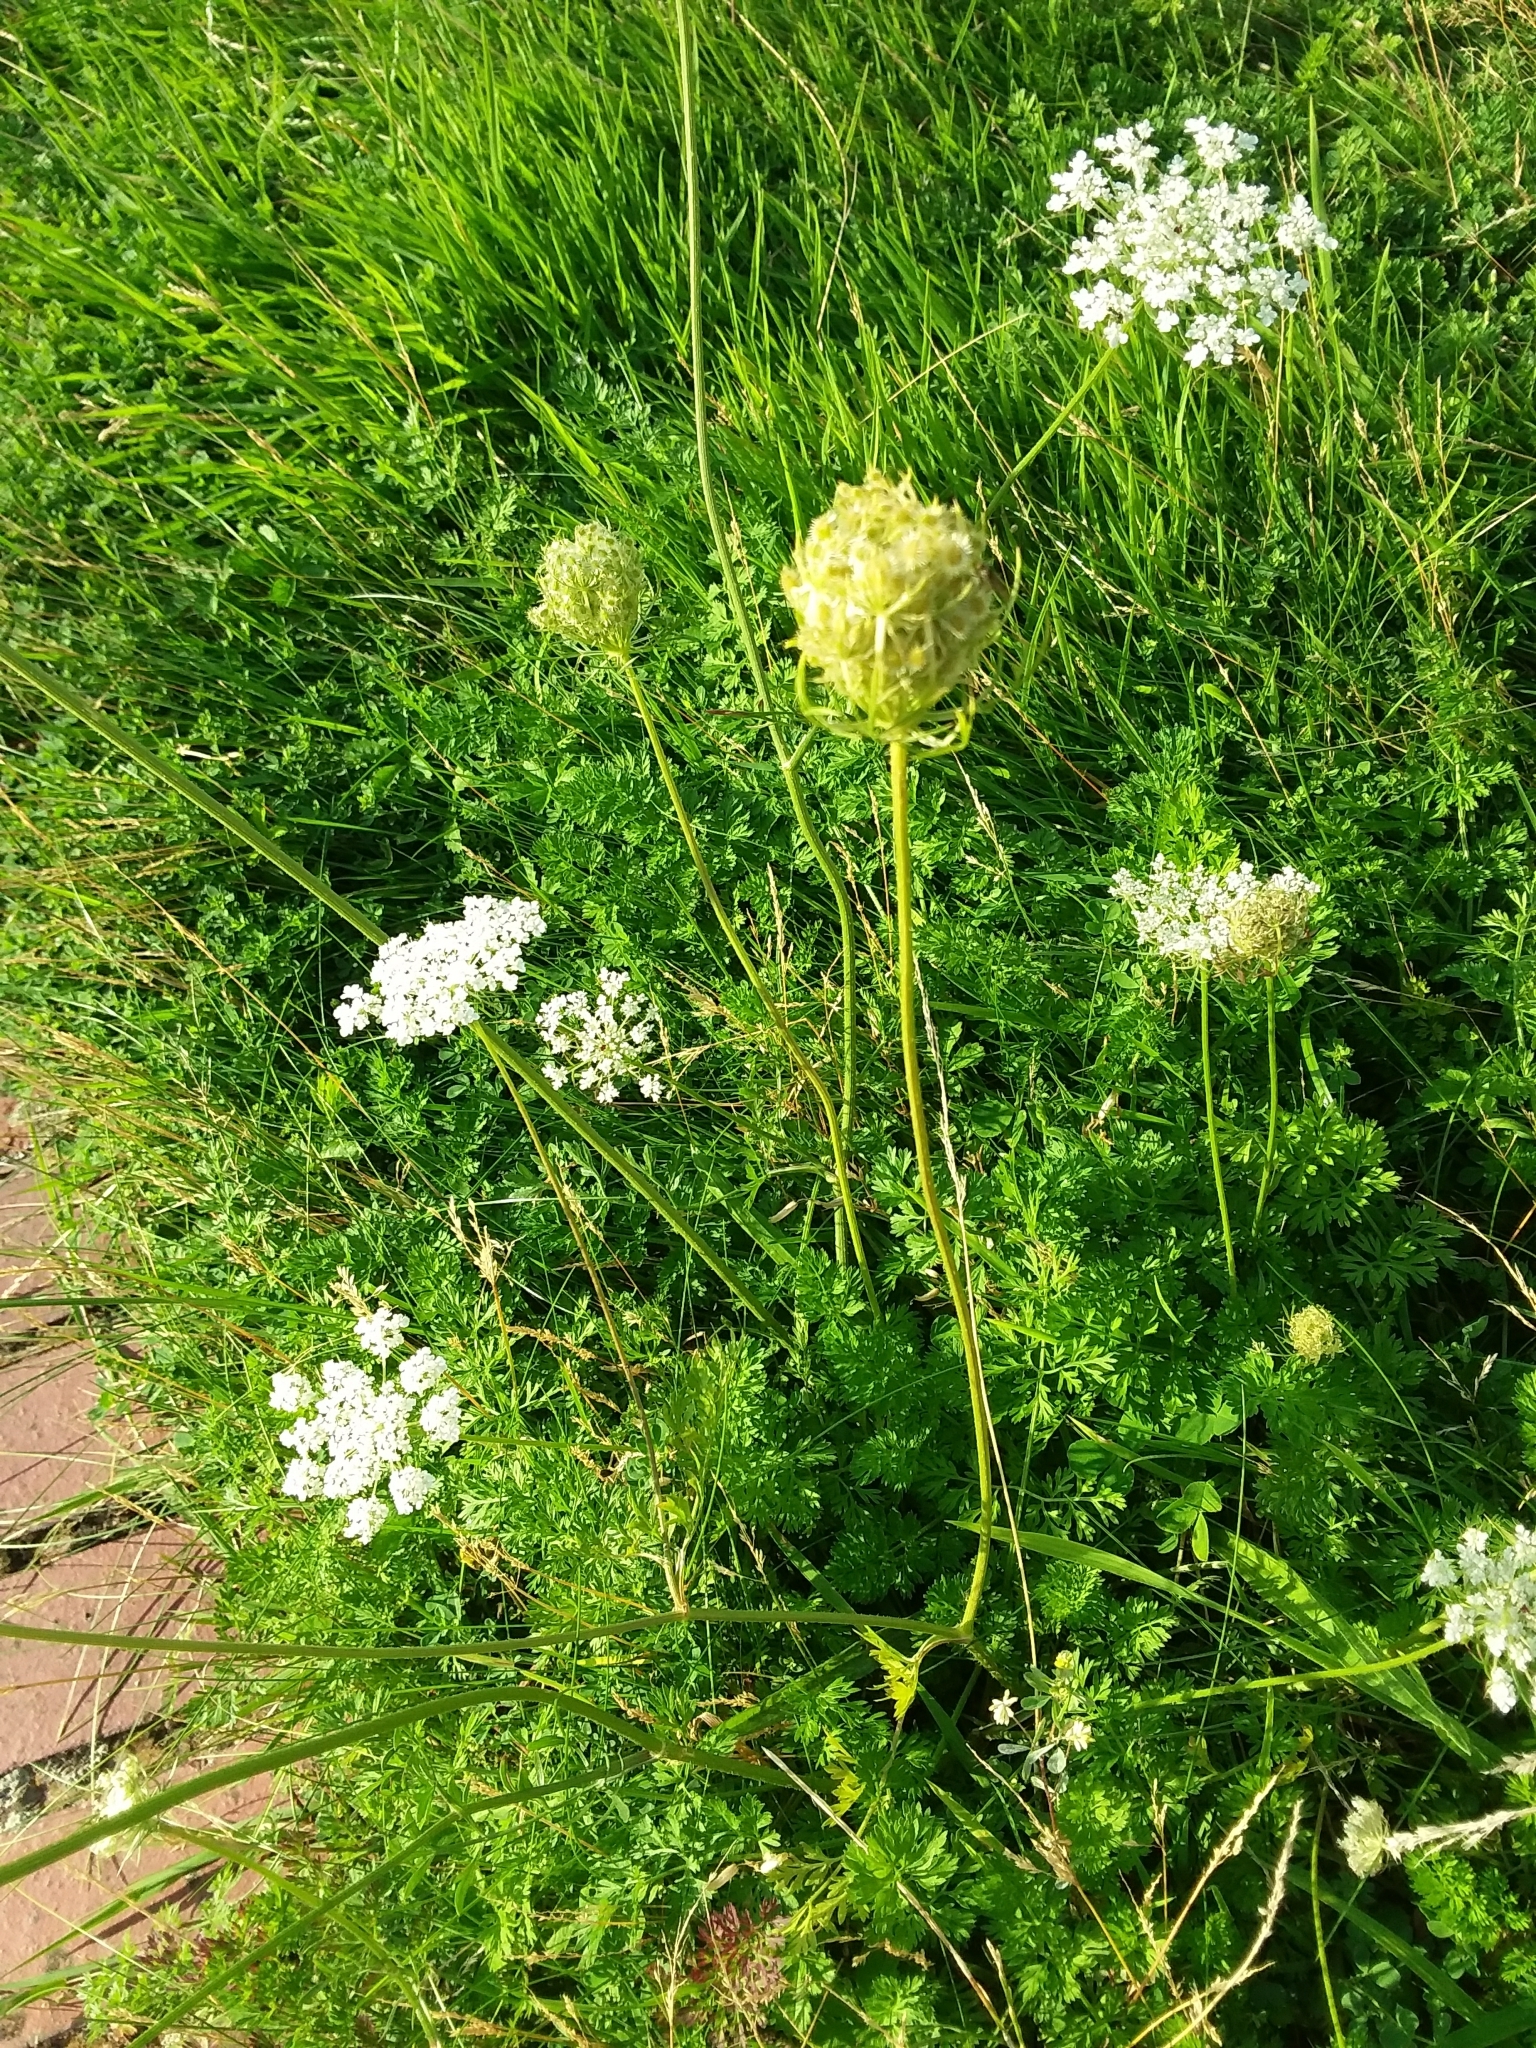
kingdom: Plantae
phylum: Tracheophyta
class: Magnoliopsida
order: Apiales
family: Apiaceae
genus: Daucus
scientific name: Daucus carota
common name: Wild carrot
